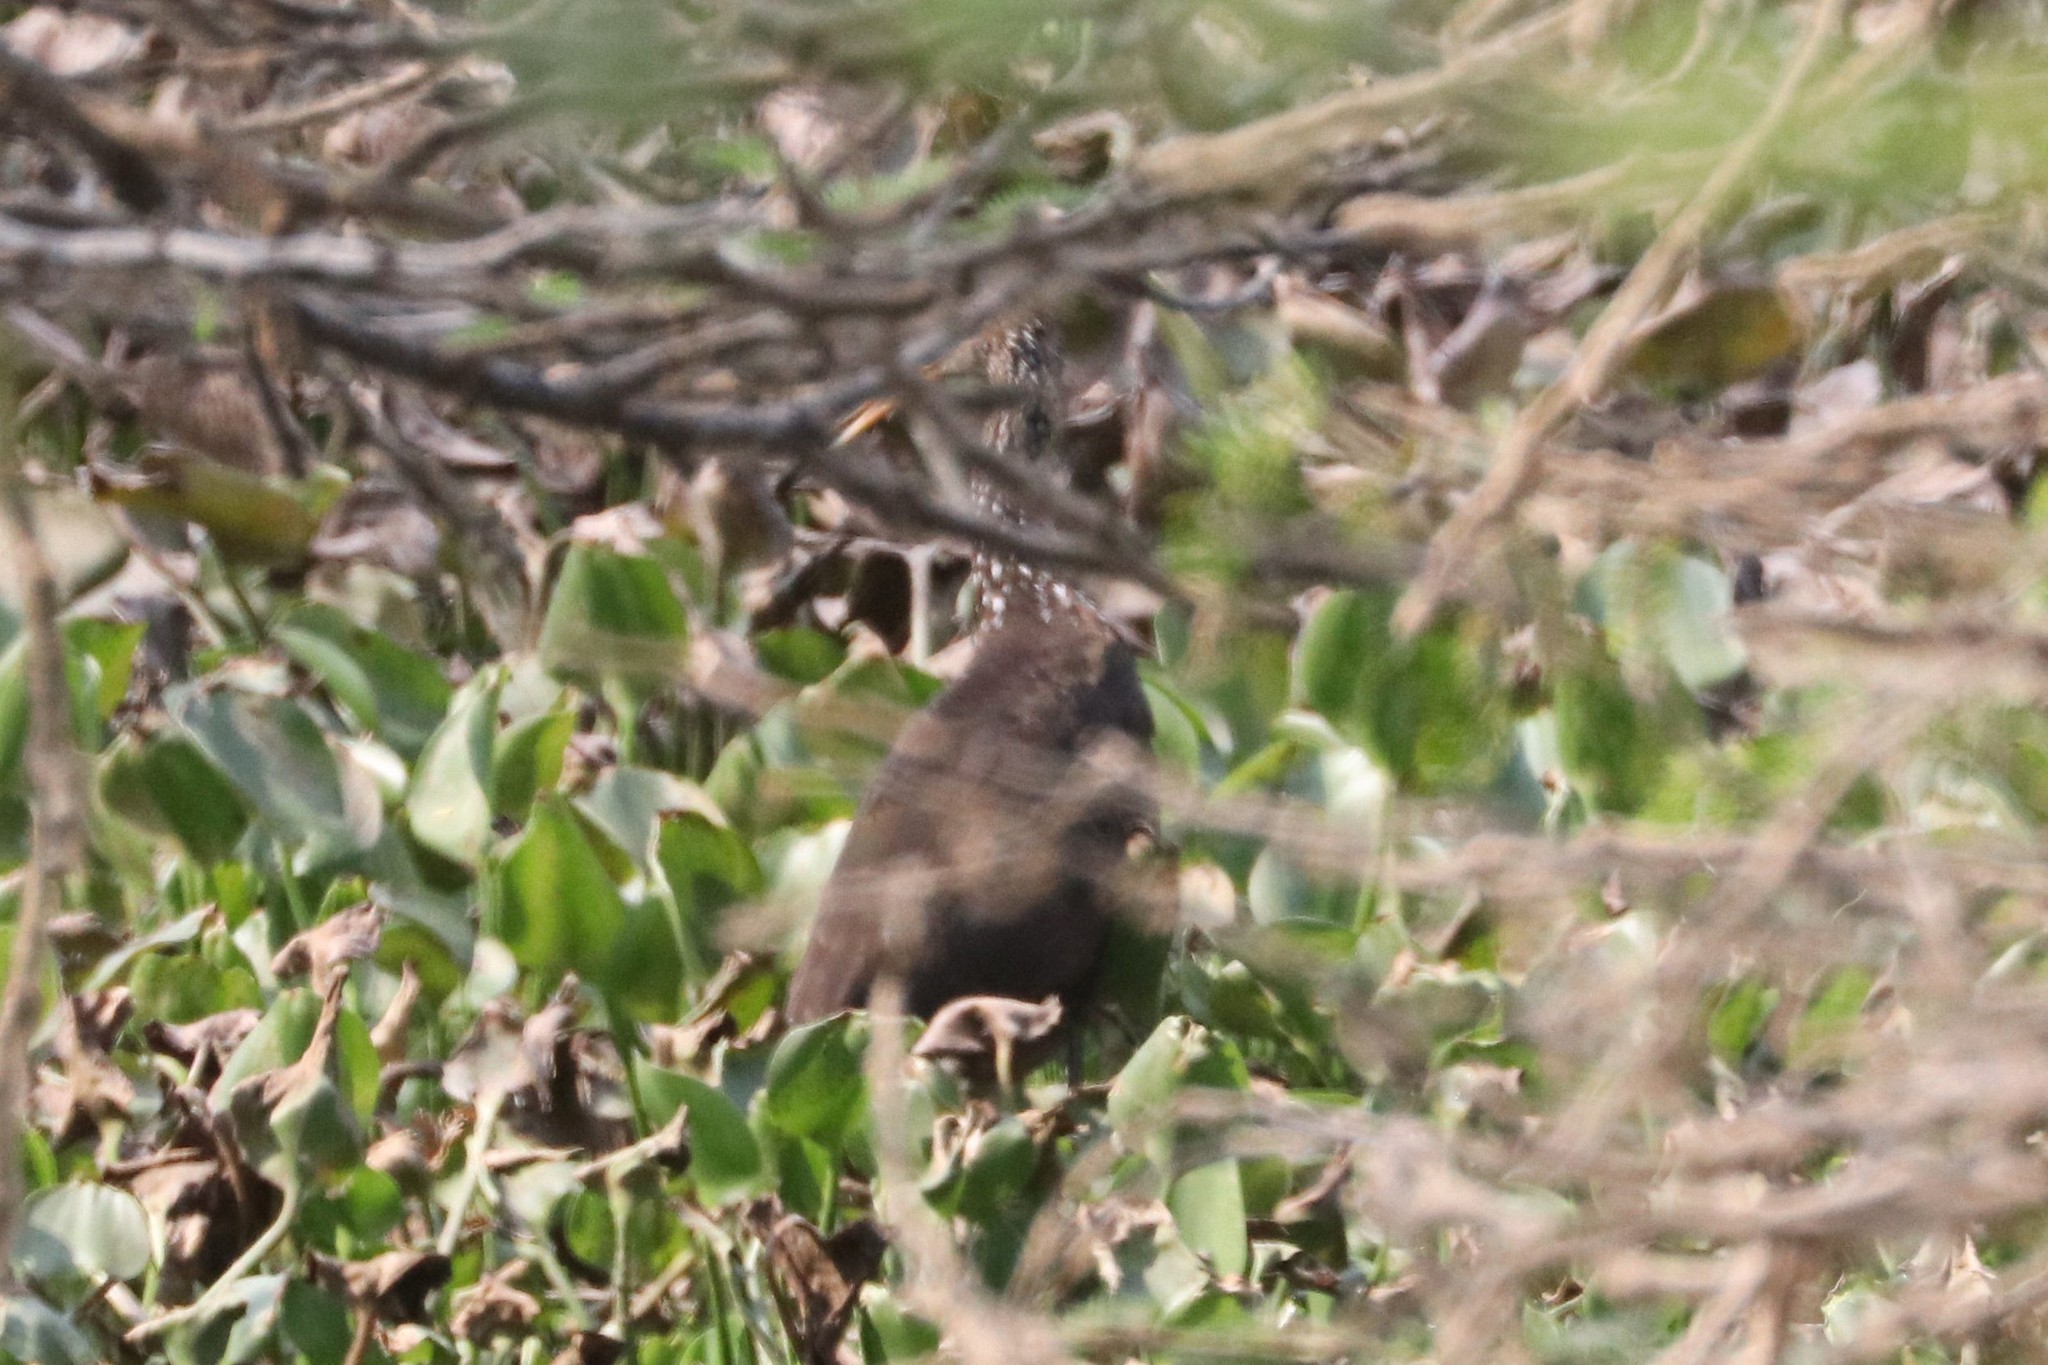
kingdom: Animalia
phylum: Chordata
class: Aves
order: Gruiformes
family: Aramidae
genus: Aramus
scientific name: Aramus guarauna
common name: Limpkin
